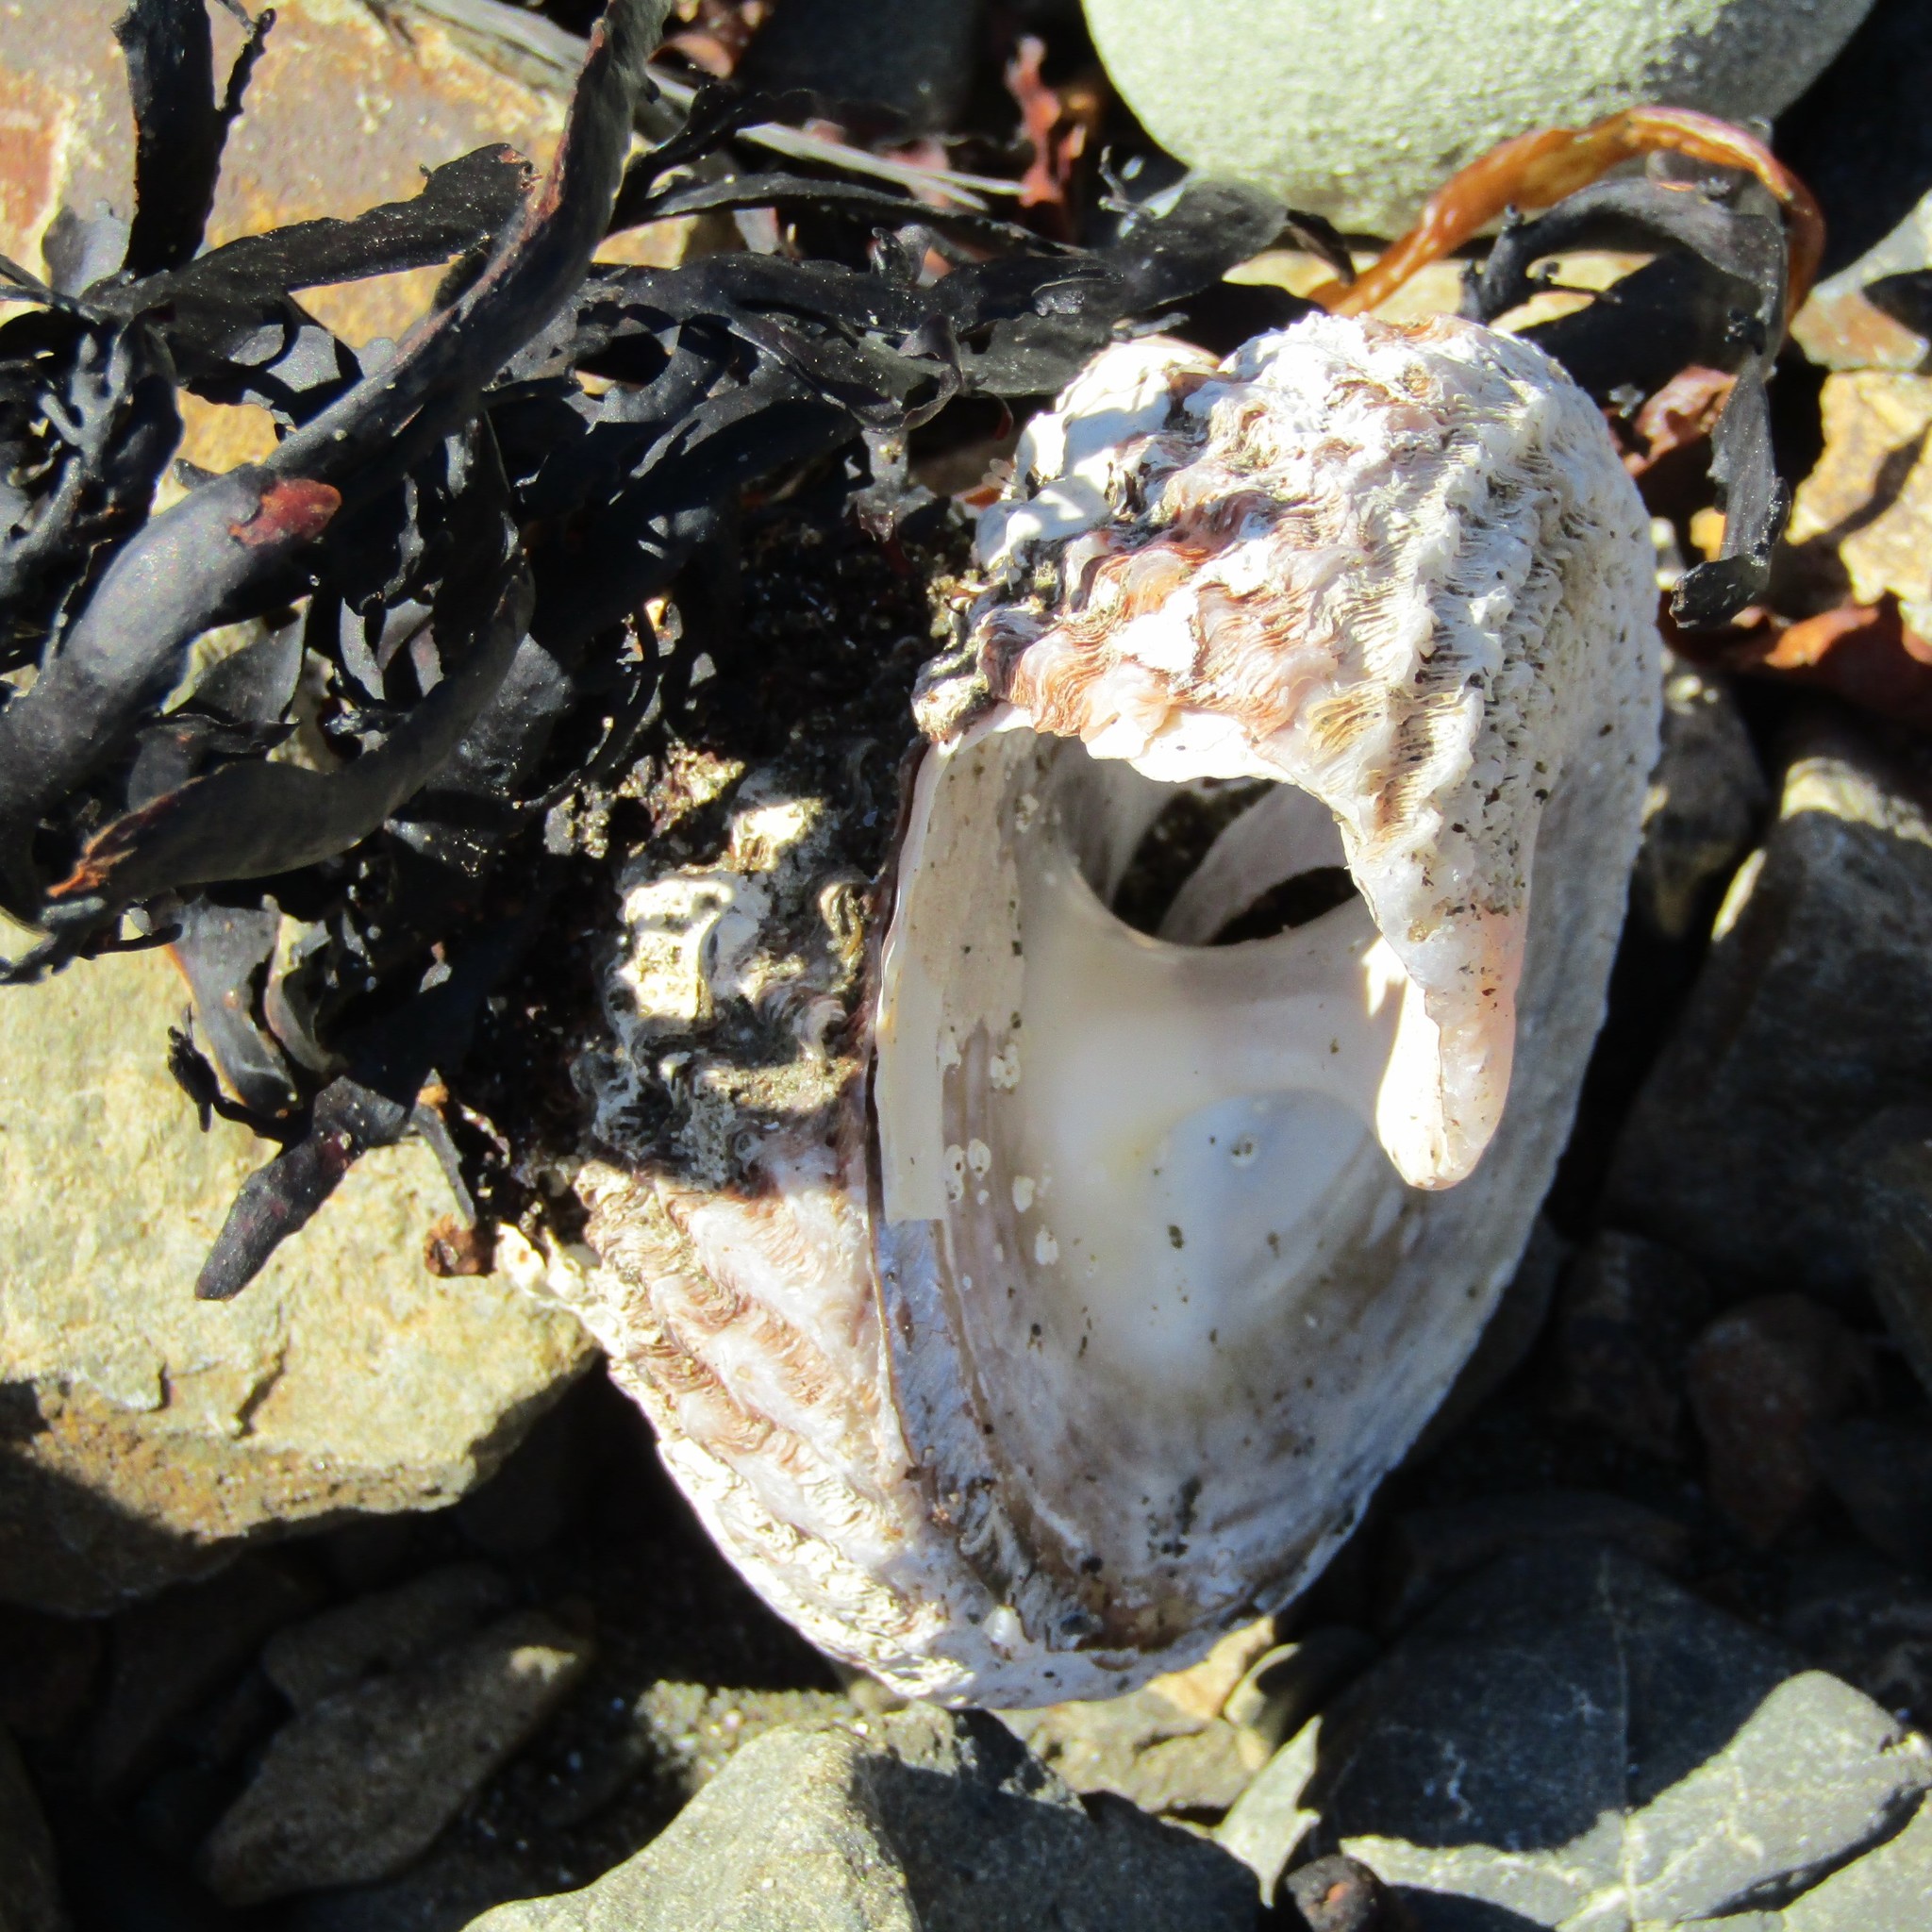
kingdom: Animalia
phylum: Mollusca
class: Gastropoda
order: Trochida
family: Turbinidae
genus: Cookia
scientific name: Cookia sulcata
